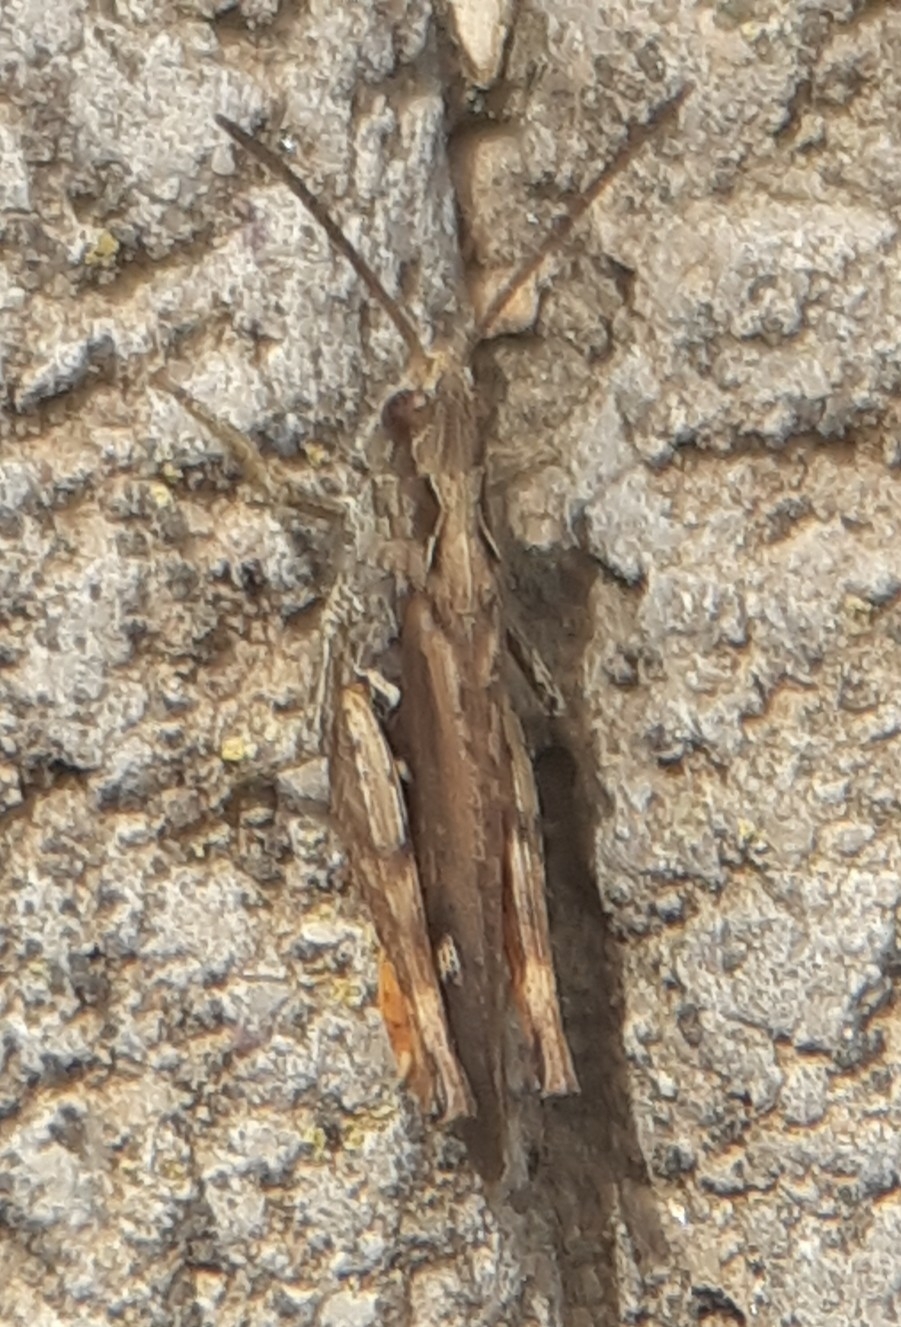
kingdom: Animalia
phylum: Arthropoda
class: Insecta
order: Orthoptera
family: Acrididae
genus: Chorthippus
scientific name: Chorthippus brunneus
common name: Field grasshopper
